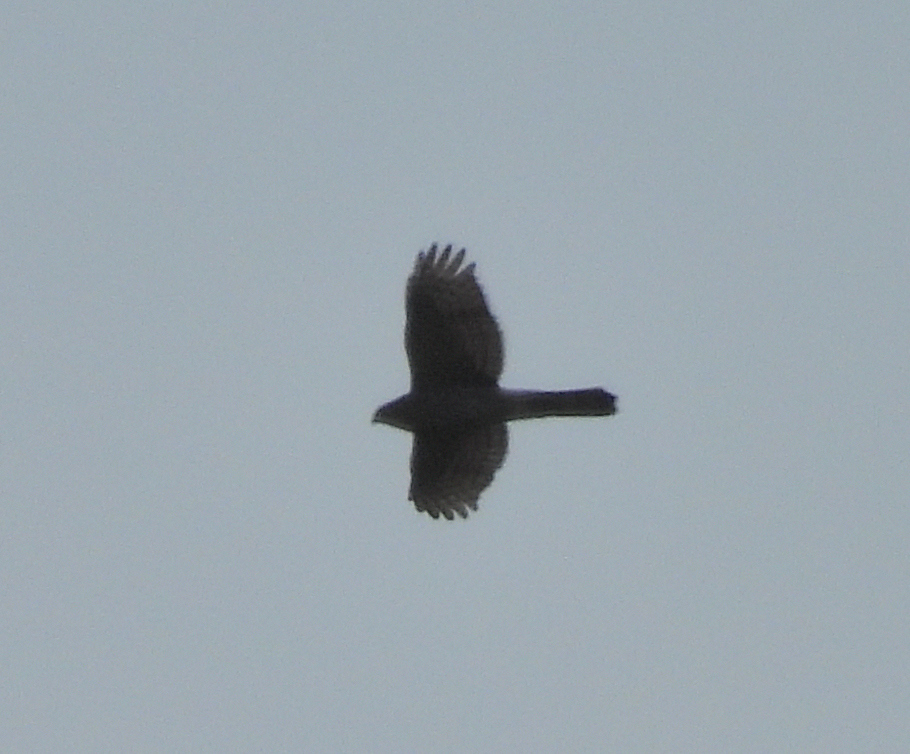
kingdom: Animalia
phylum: Chordata
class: Aves
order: Accipitriformes
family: Accipitridae
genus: Accipiter
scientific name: Accipiter cooperii
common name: Cooper's hawk
